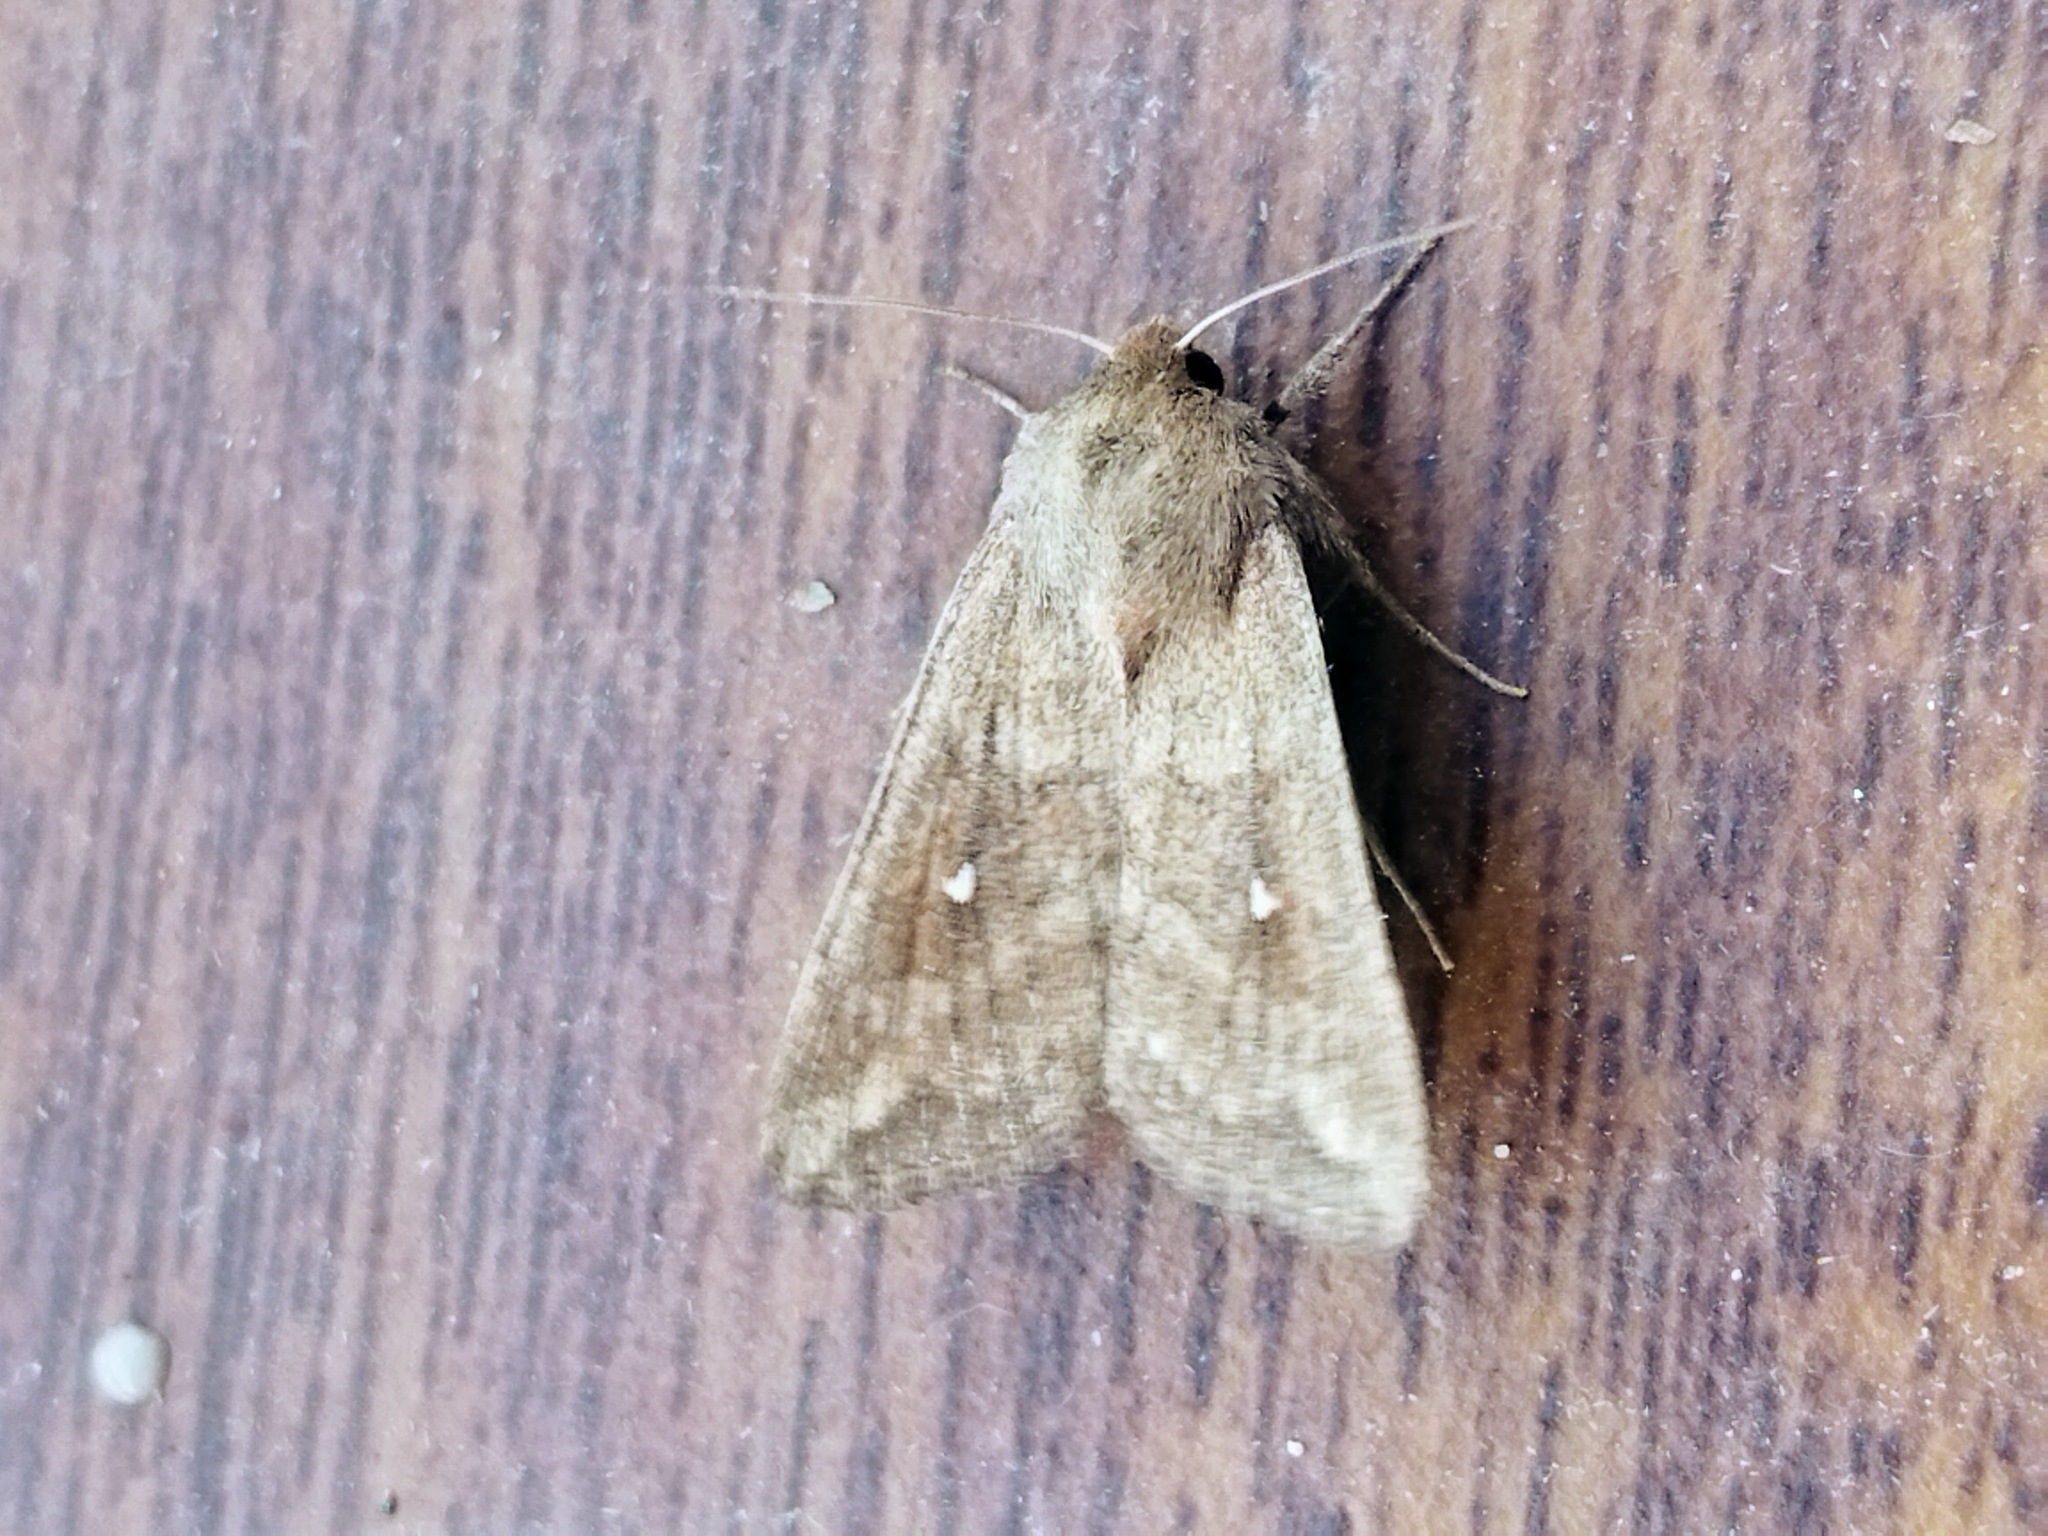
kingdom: Animalia
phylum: Arthropoda
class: Insecta
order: Lepidoptera
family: Noctuidae
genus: Mythimna
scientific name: Mythimna albipuncta
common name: White-point
